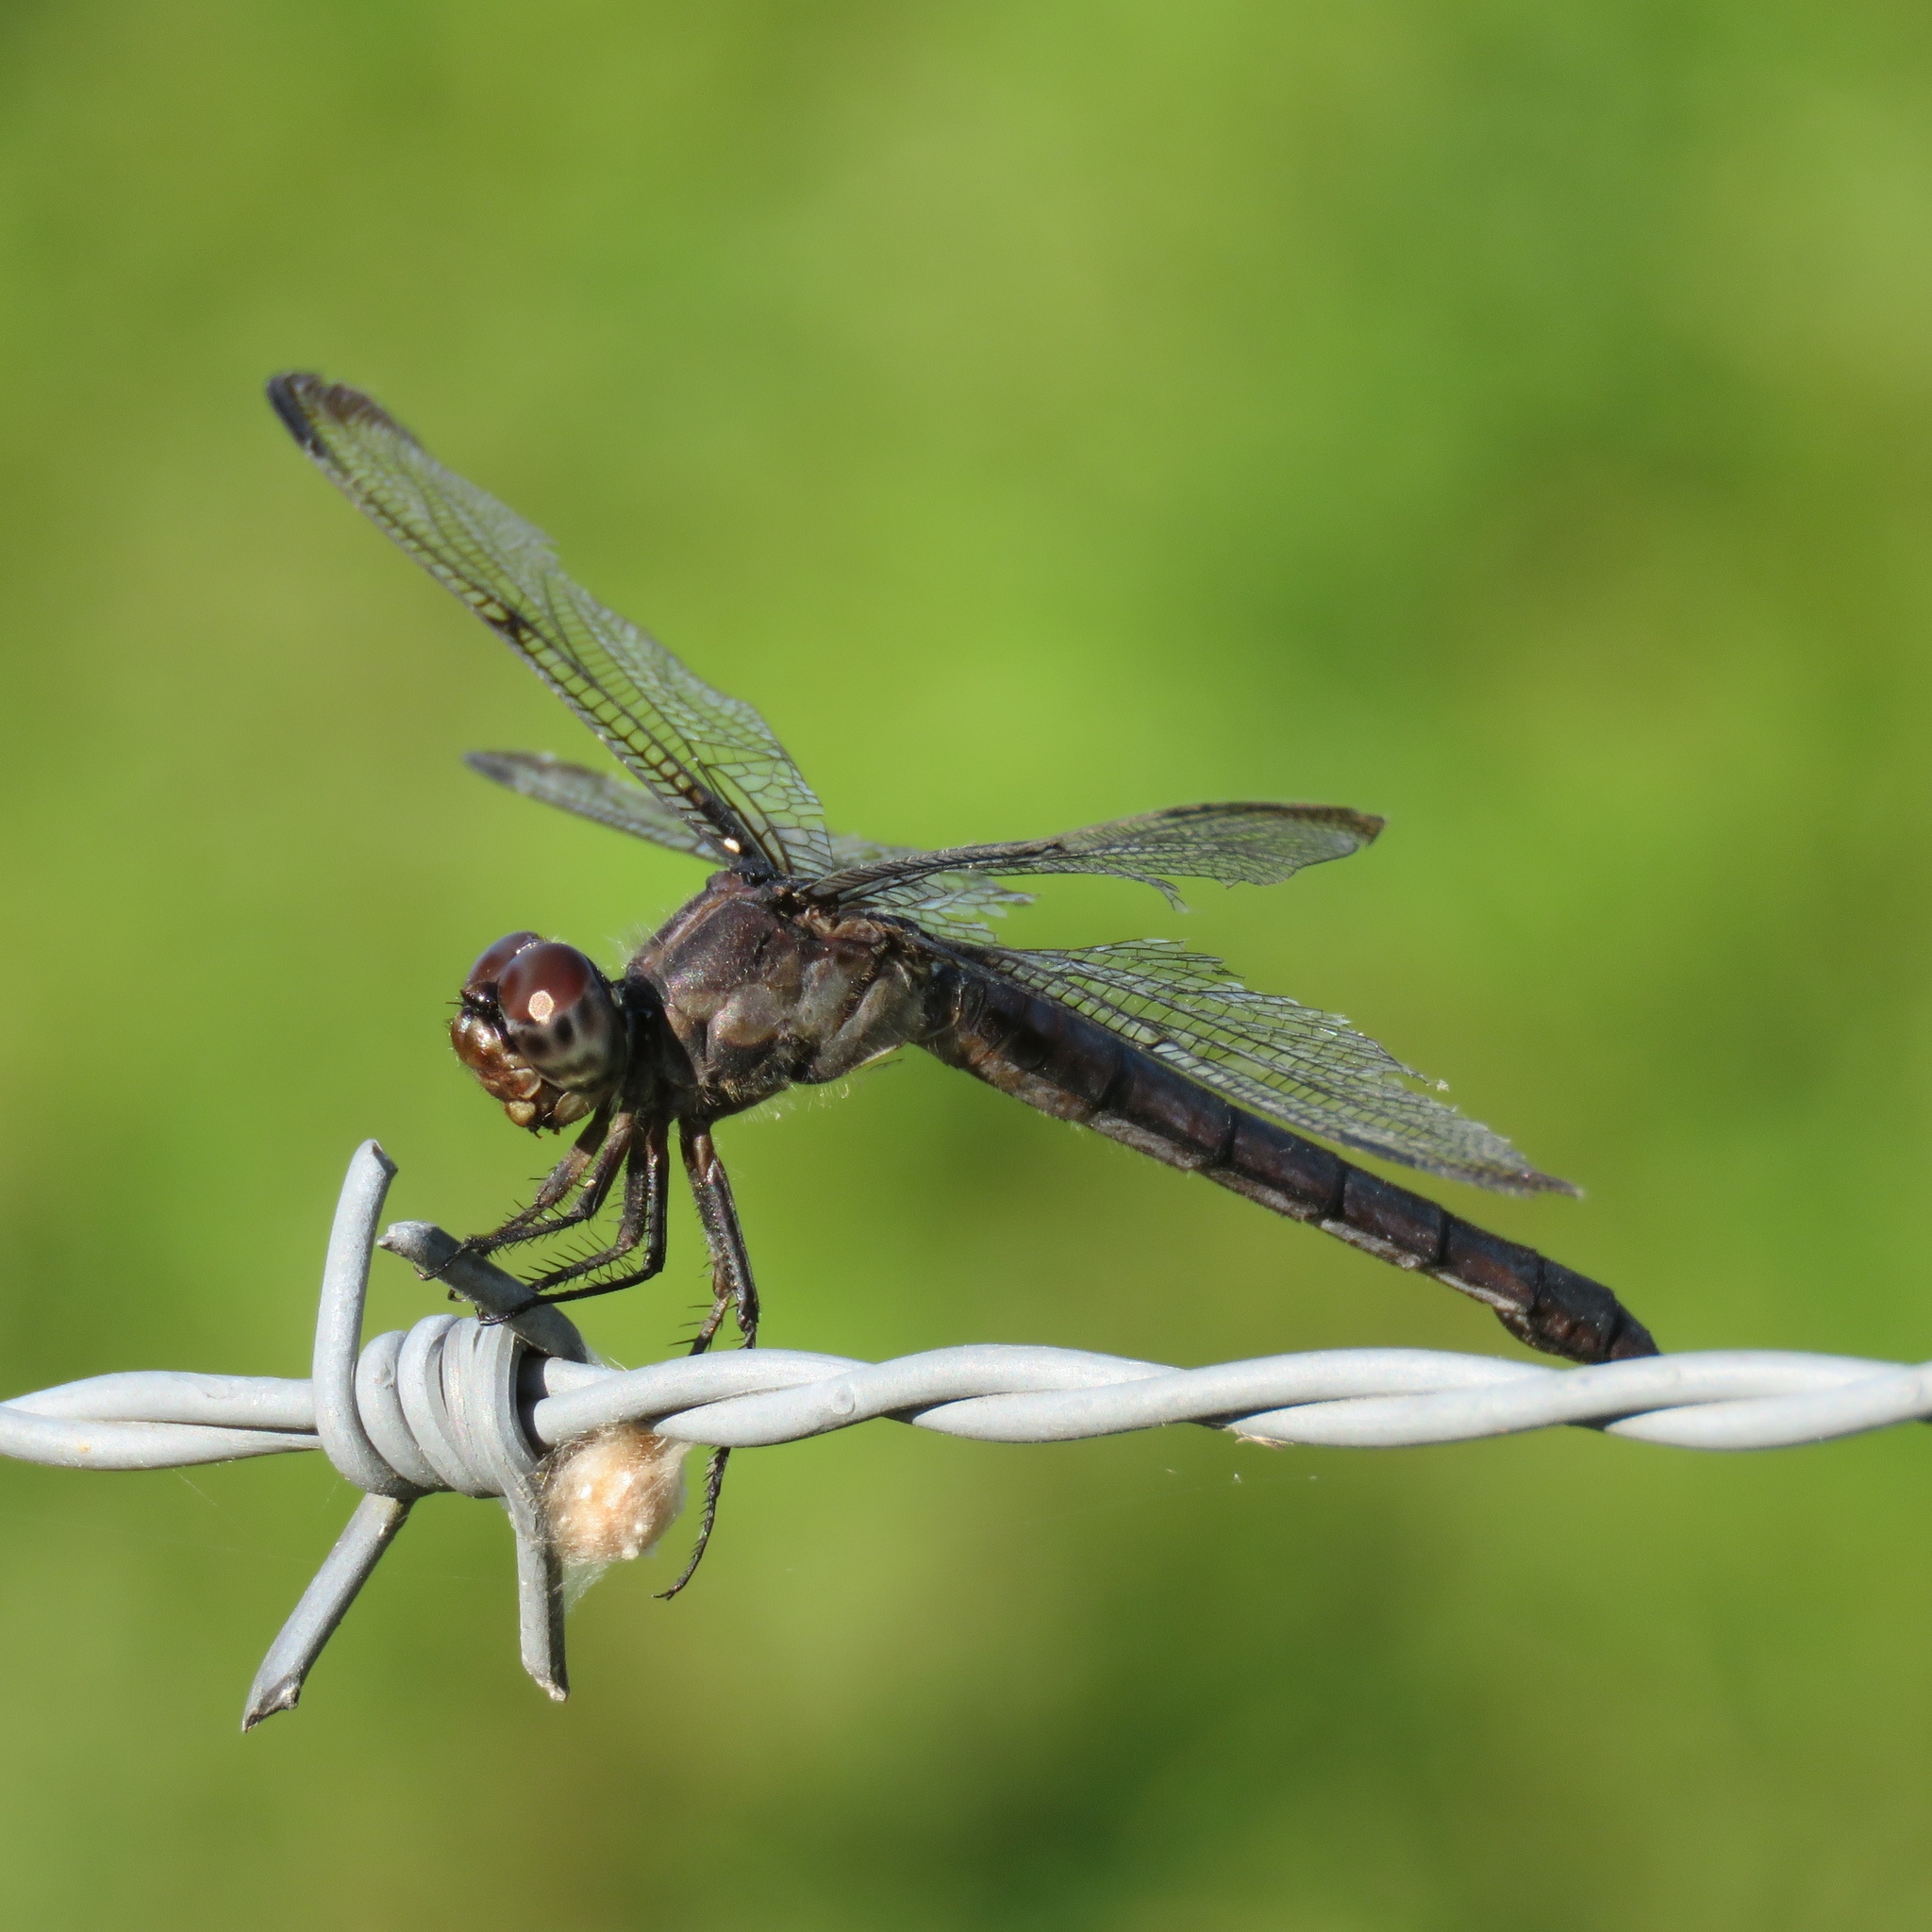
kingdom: Animalia
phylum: Arthropoda
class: Insecta
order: Odonata
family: Libellulidae
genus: Libellula
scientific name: Libellula incesta
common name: Slaty skimmer
